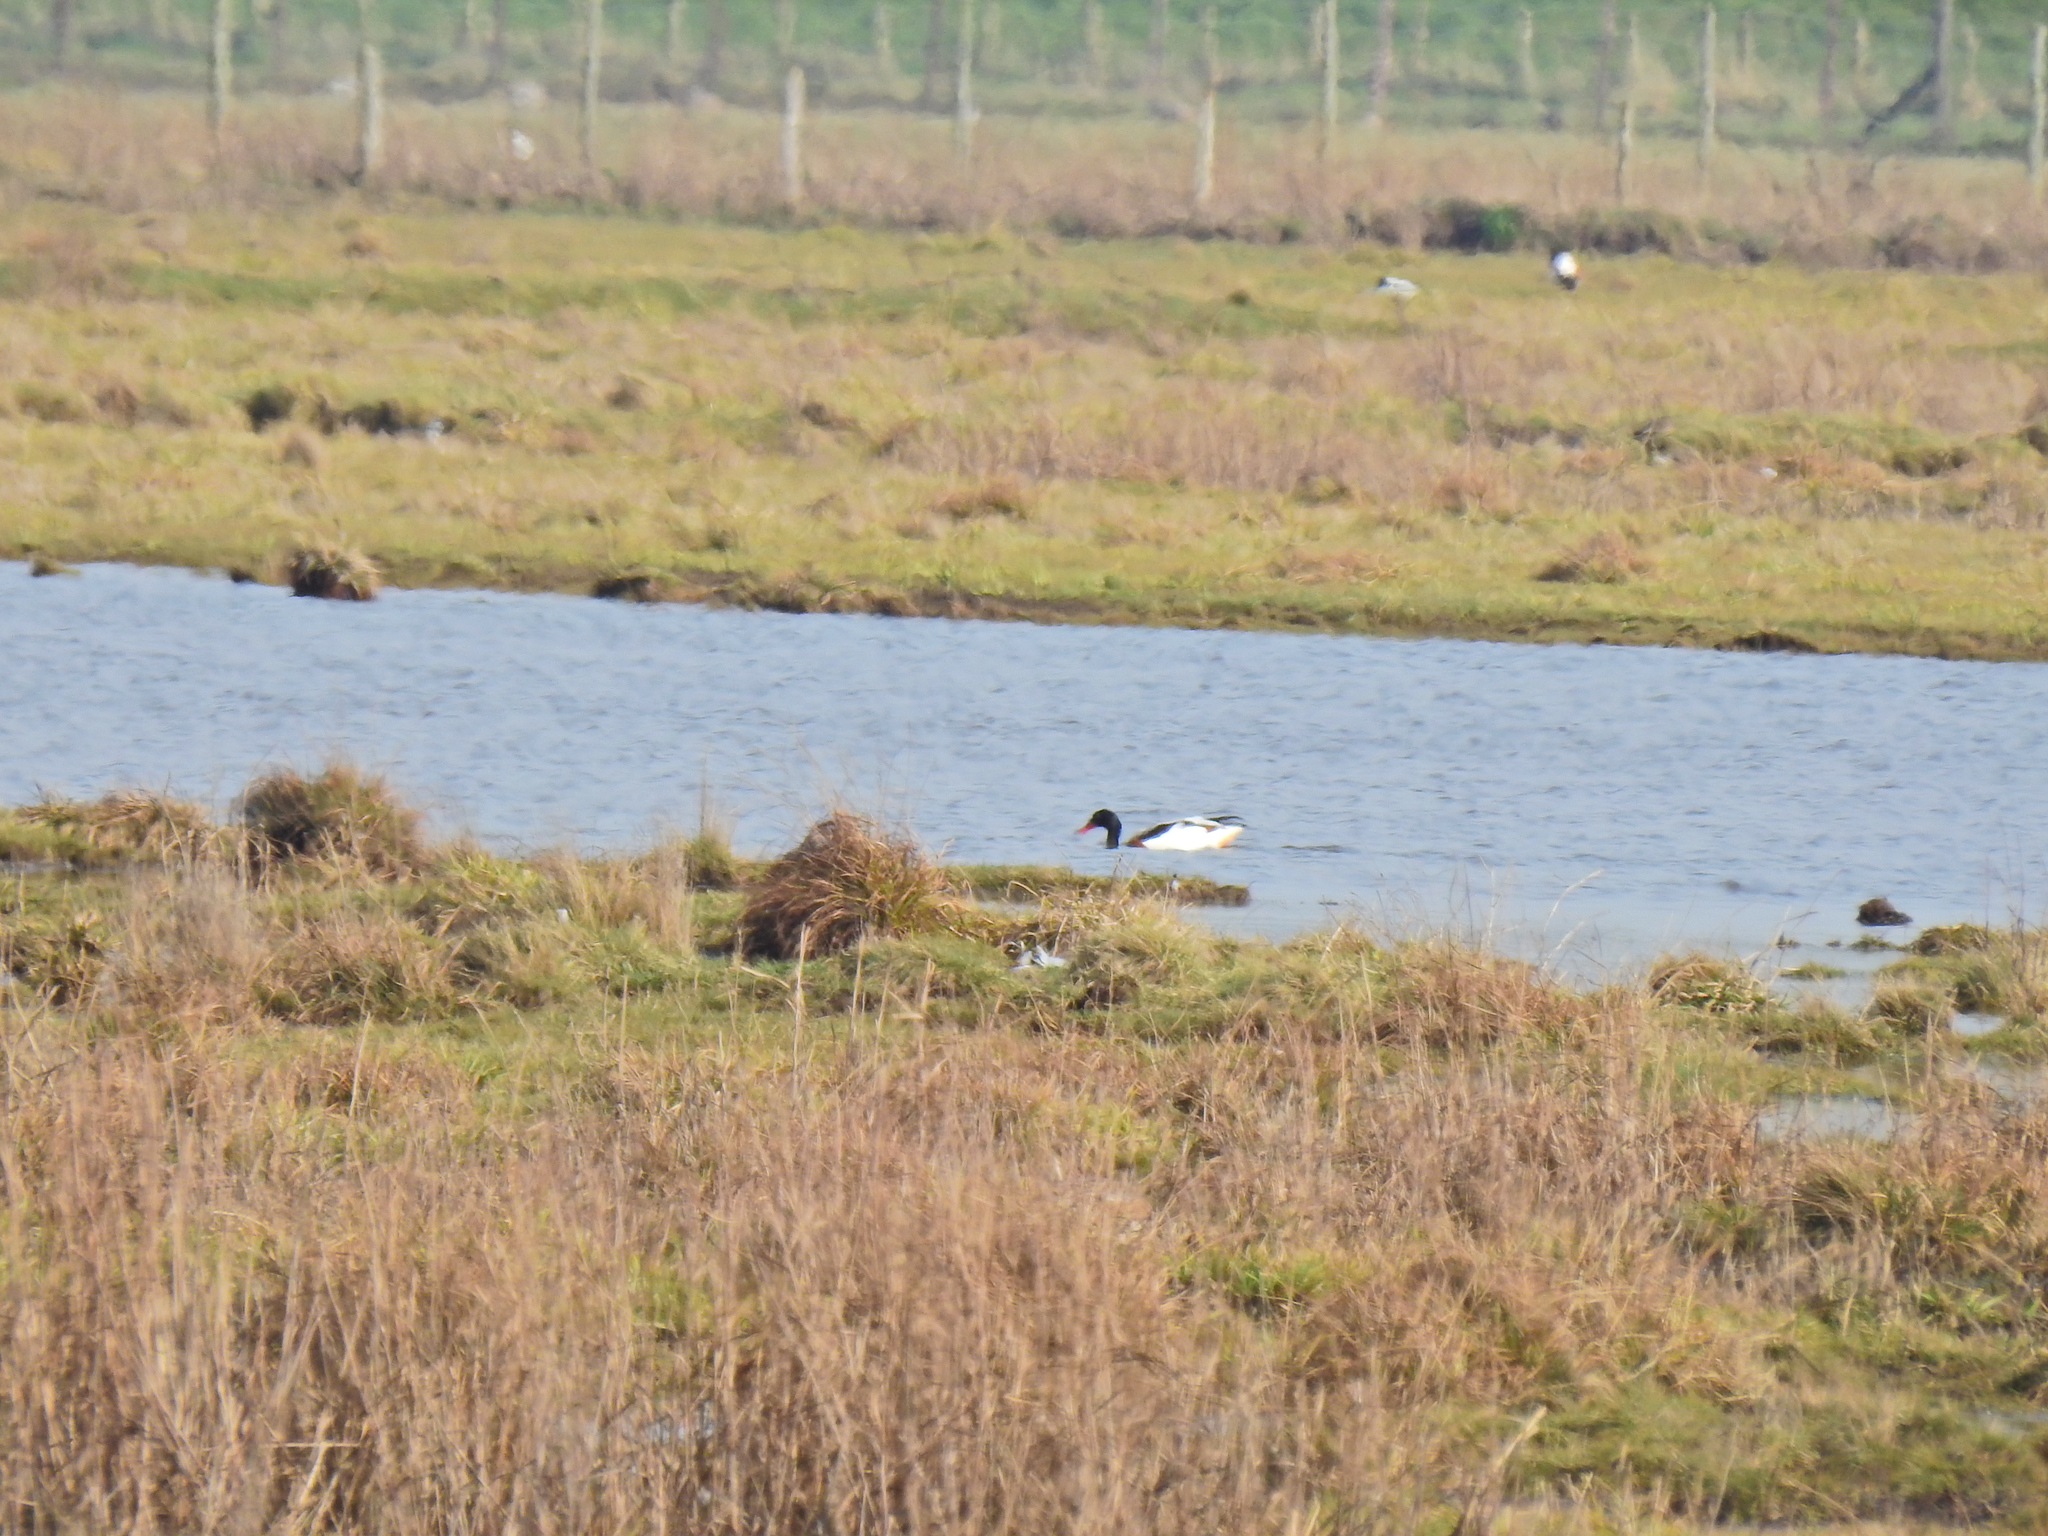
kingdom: Animalia
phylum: Chordata
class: Aves
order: Anseriformes
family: Anatidae
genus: Tadorna
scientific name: Tadorna tadorna
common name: Common shelduck
